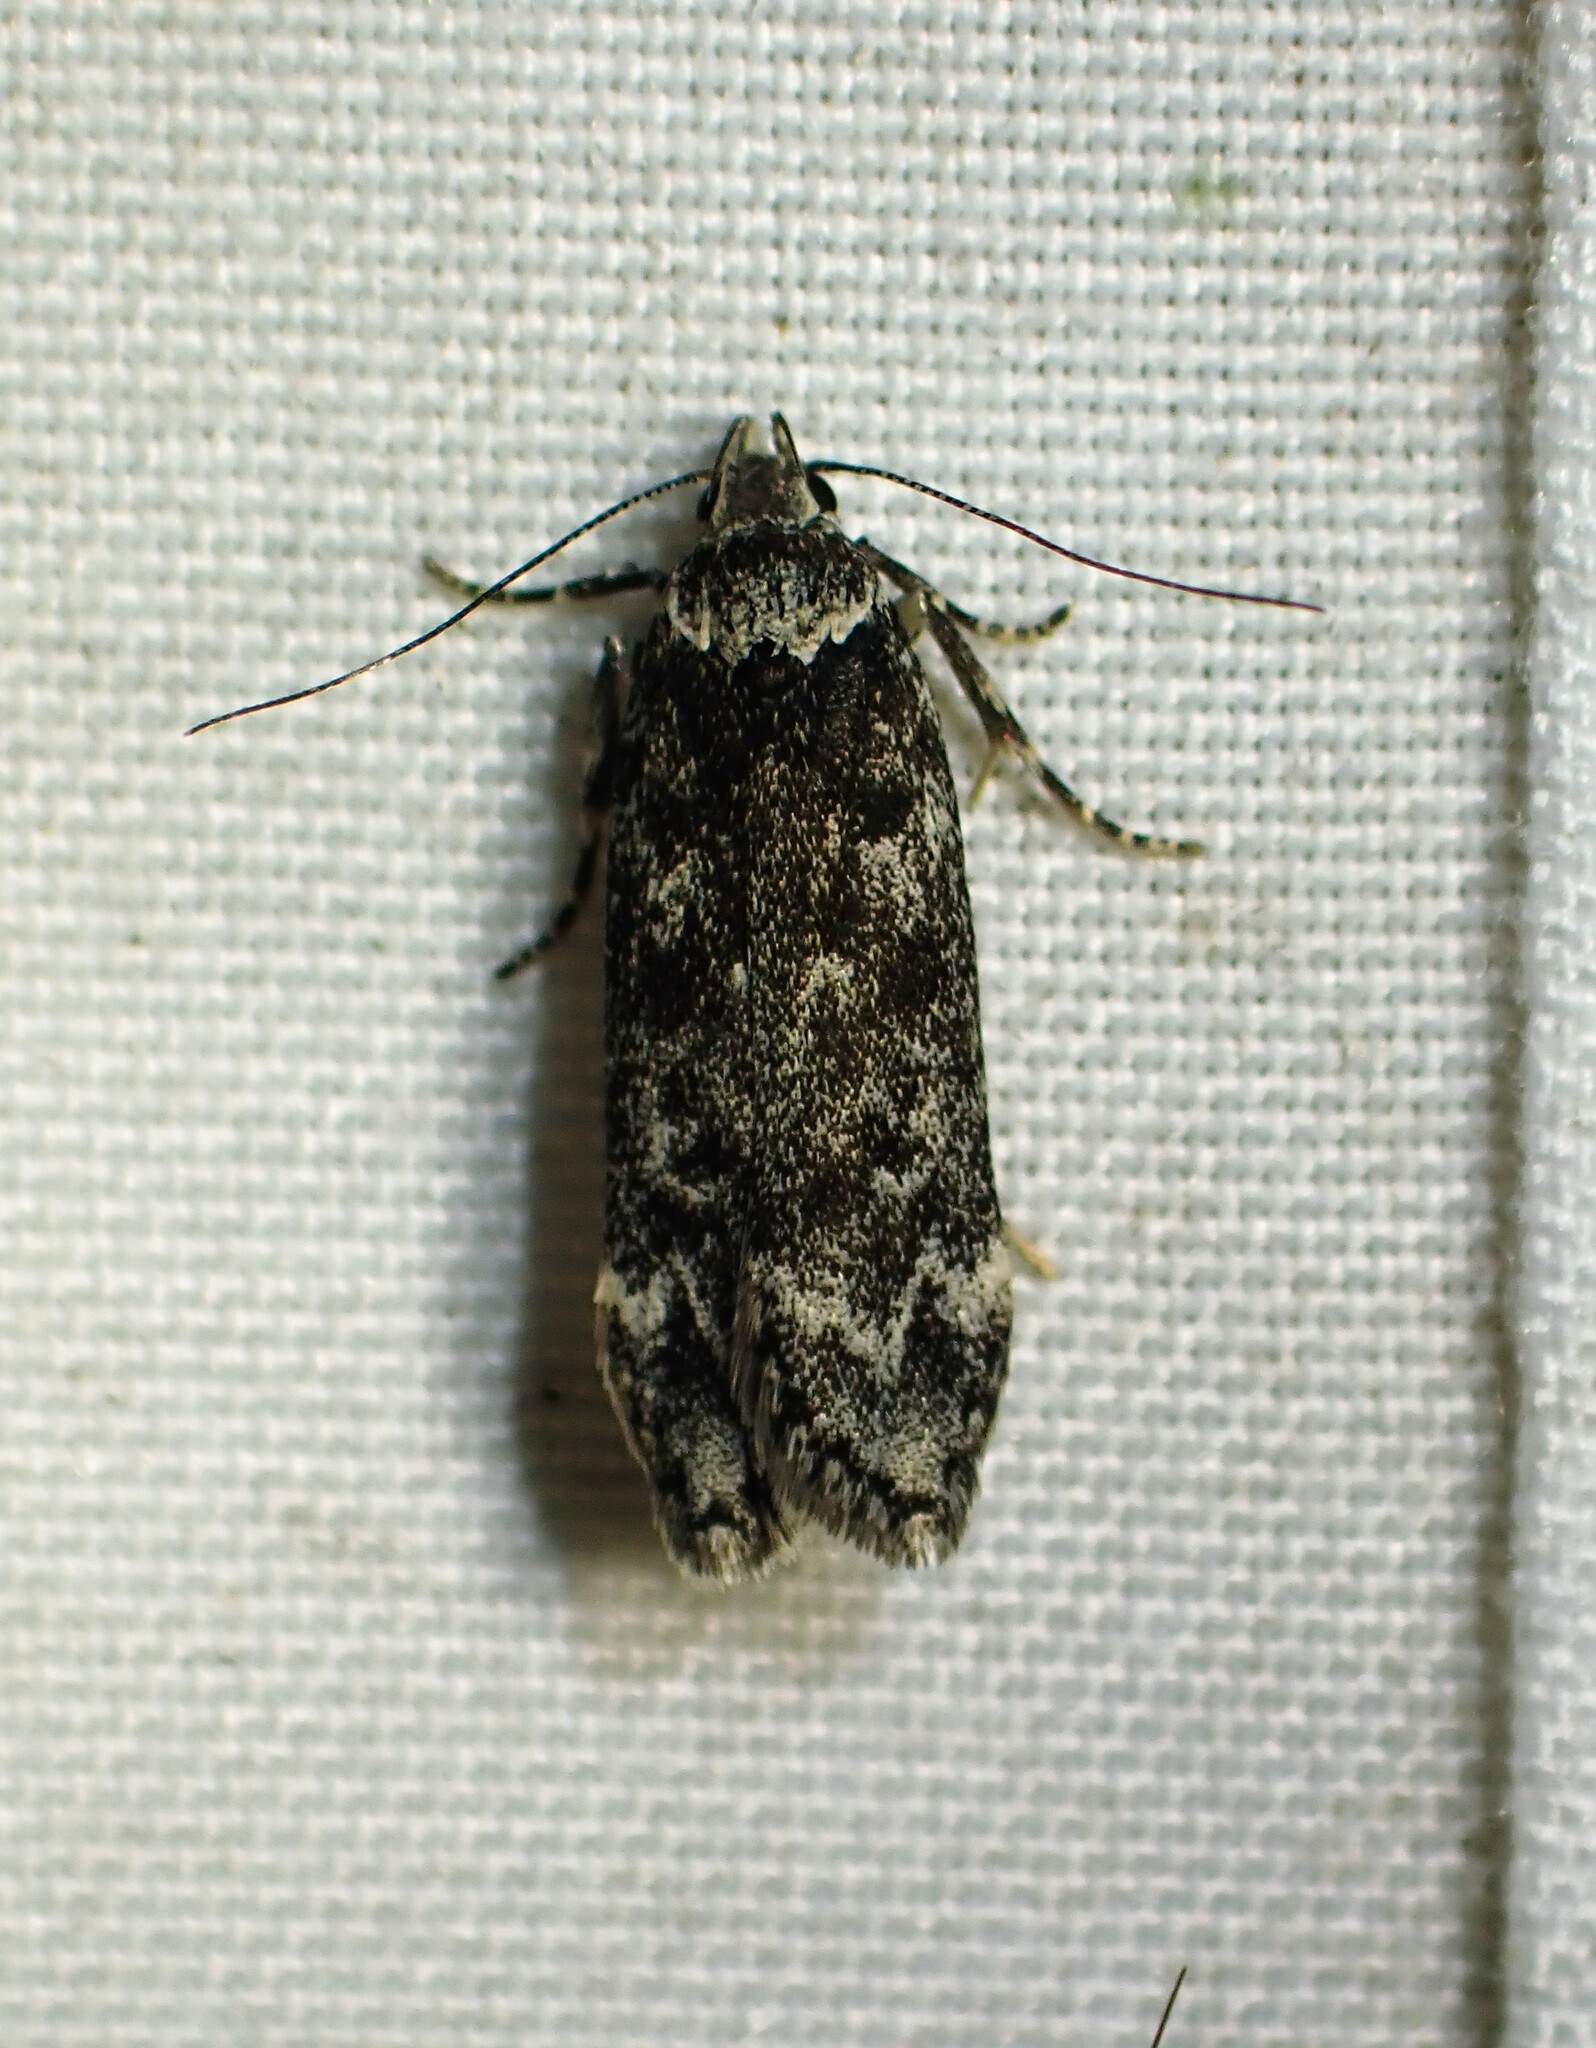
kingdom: Animalia
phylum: Arthropoda
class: Insecta
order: Lepidoptera
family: Gelechiidae
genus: Anacampsis
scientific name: Anacampsis niveopulvella
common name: Pale-headed aspen leafroller moth
